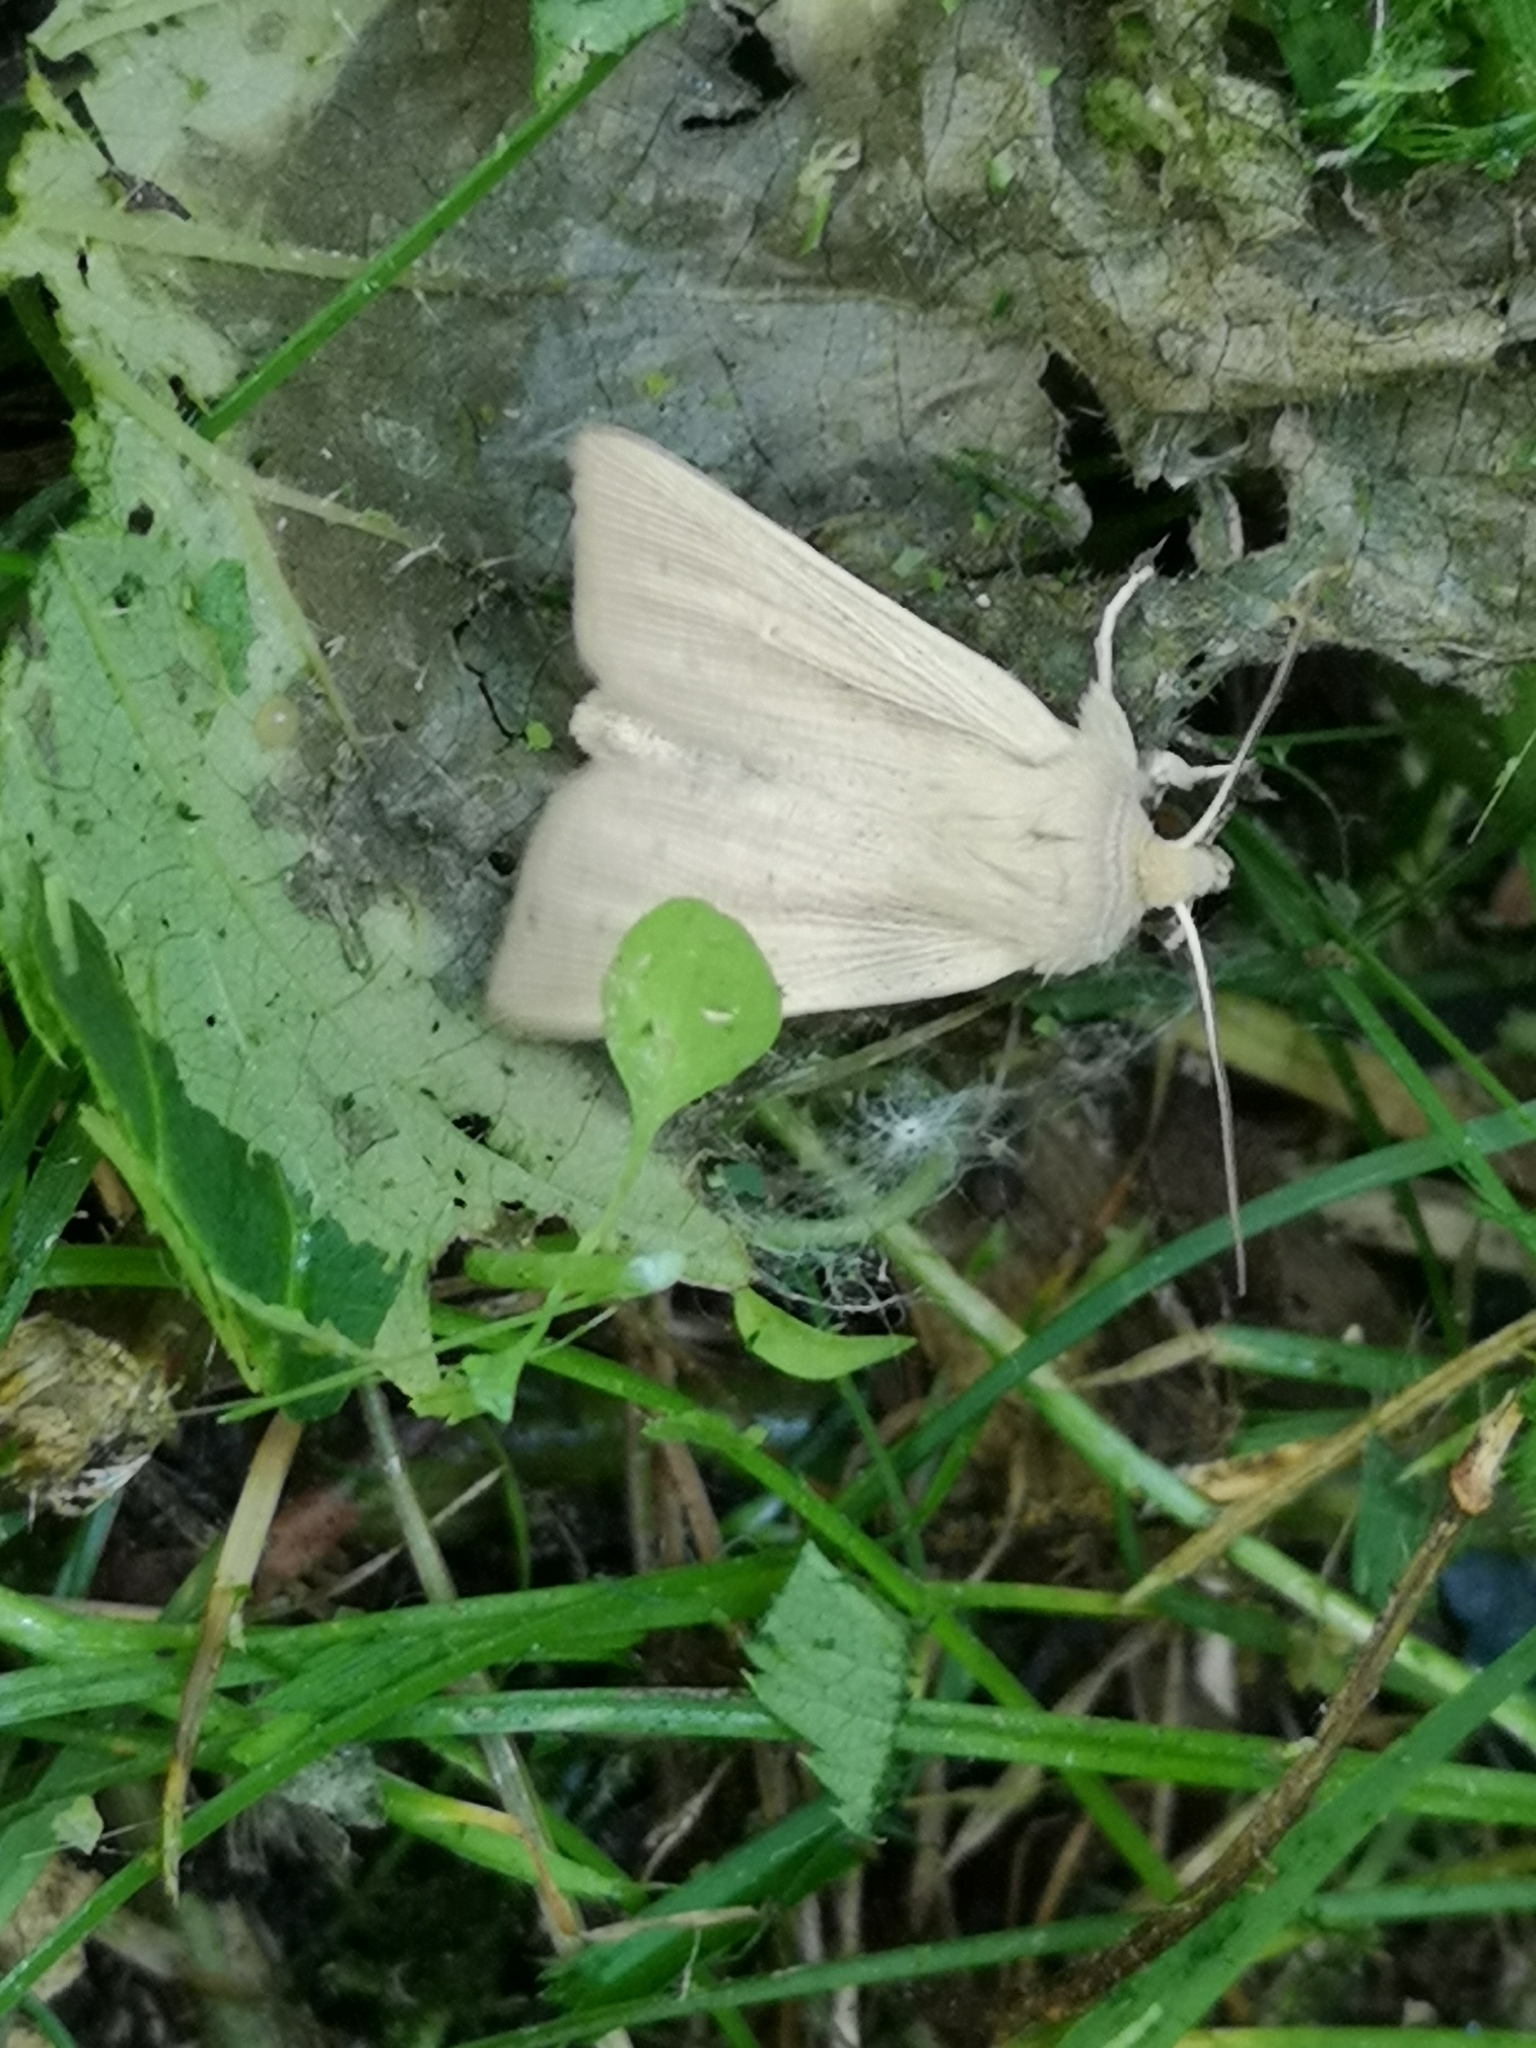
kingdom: Animalia
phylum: Arthropoda
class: Insecta
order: Lepidoptera
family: Noctuidae
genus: Mythimna
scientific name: Mythimna pallens
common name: Common wainscot
